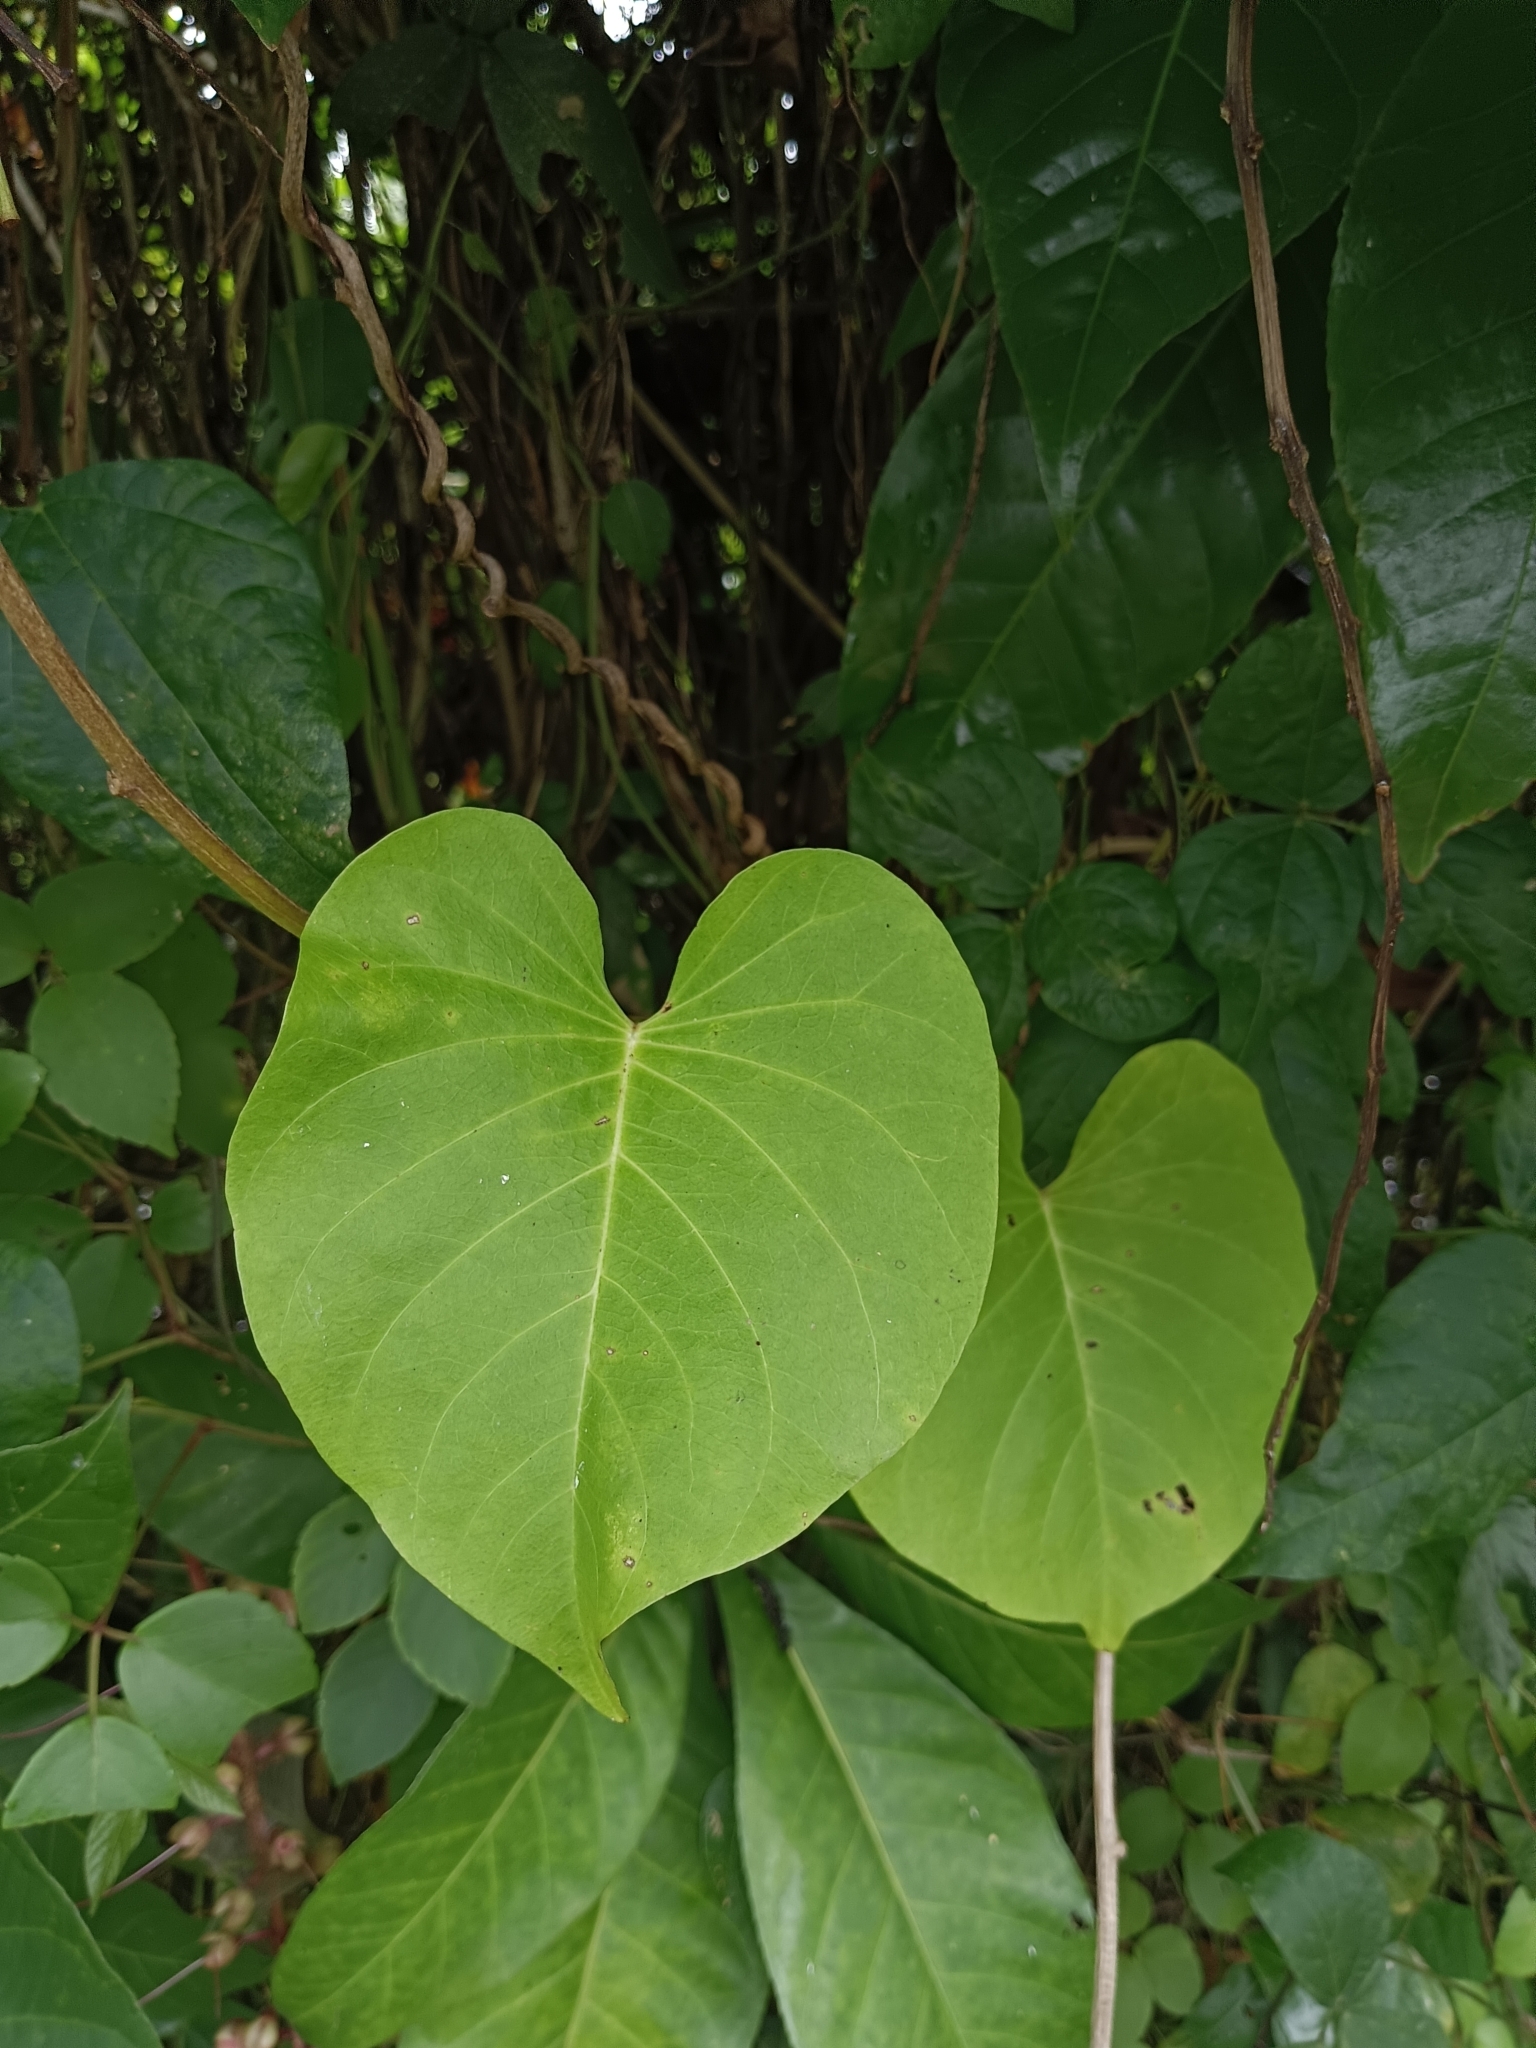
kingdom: Plantae
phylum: Tracheophyta
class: Magnoliopsida
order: Solanales
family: Convolvulaceae
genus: Ipomoea
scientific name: Ipomoea violacea
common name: Beach moonflower
